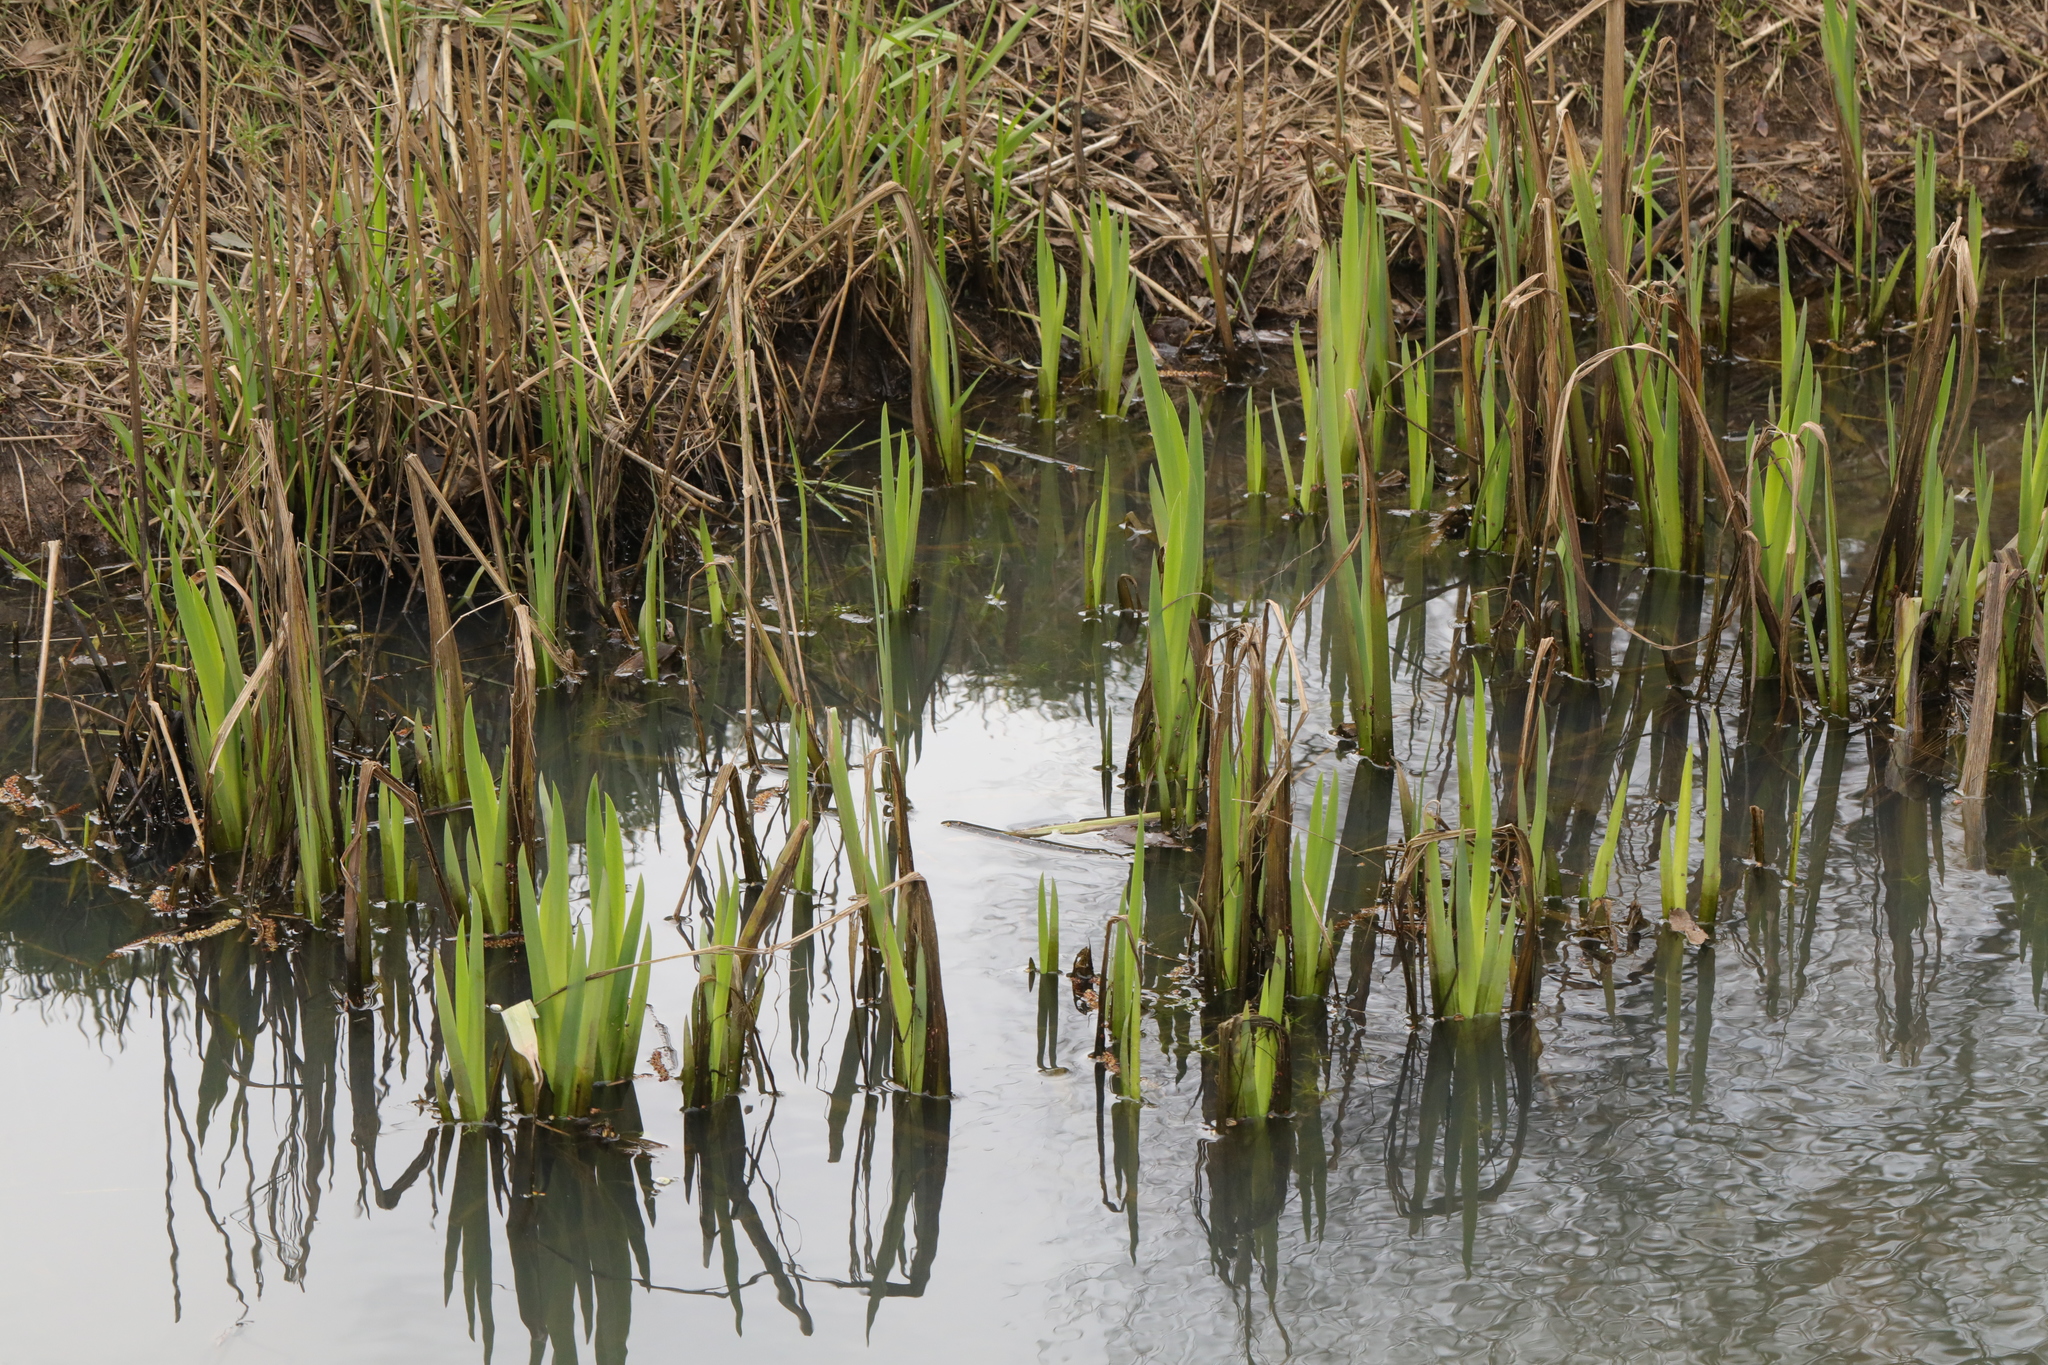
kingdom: Plantae
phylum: Tracheophyta
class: Liliopsida
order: Asparagales
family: Iridaceae
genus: Iris
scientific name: Iris pseudacorus
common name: Yellow flag
